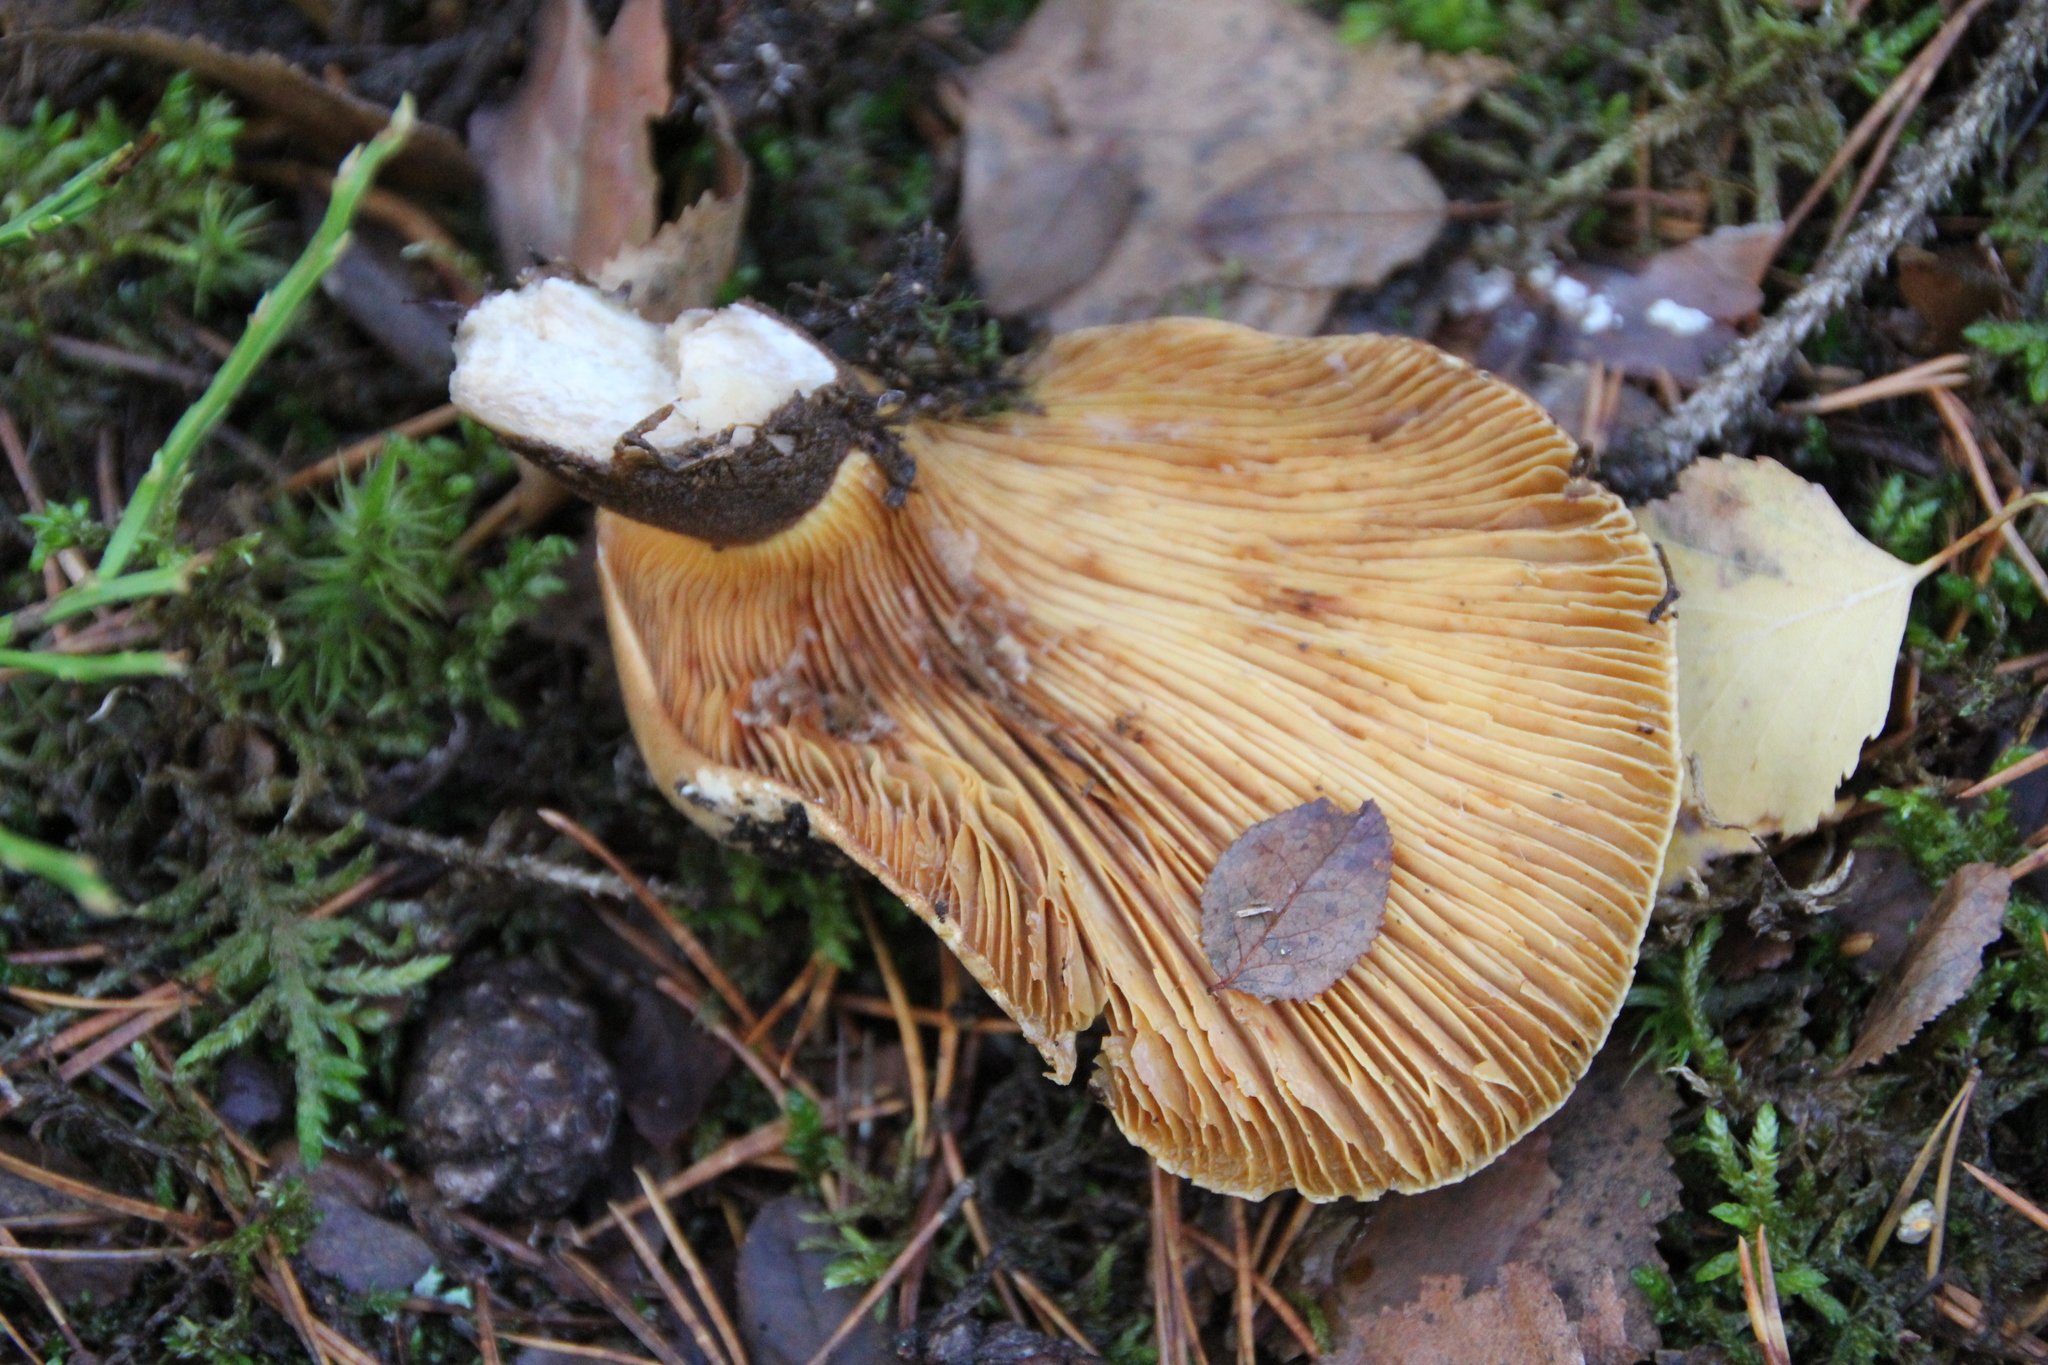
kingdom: Fungi
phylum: Basidiomycota
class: Agaricomycetes
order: Boletales
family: Tapinellaceae
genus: Tapinella
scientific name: Tapinella atrotomentosa
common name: Velvet rollrim
